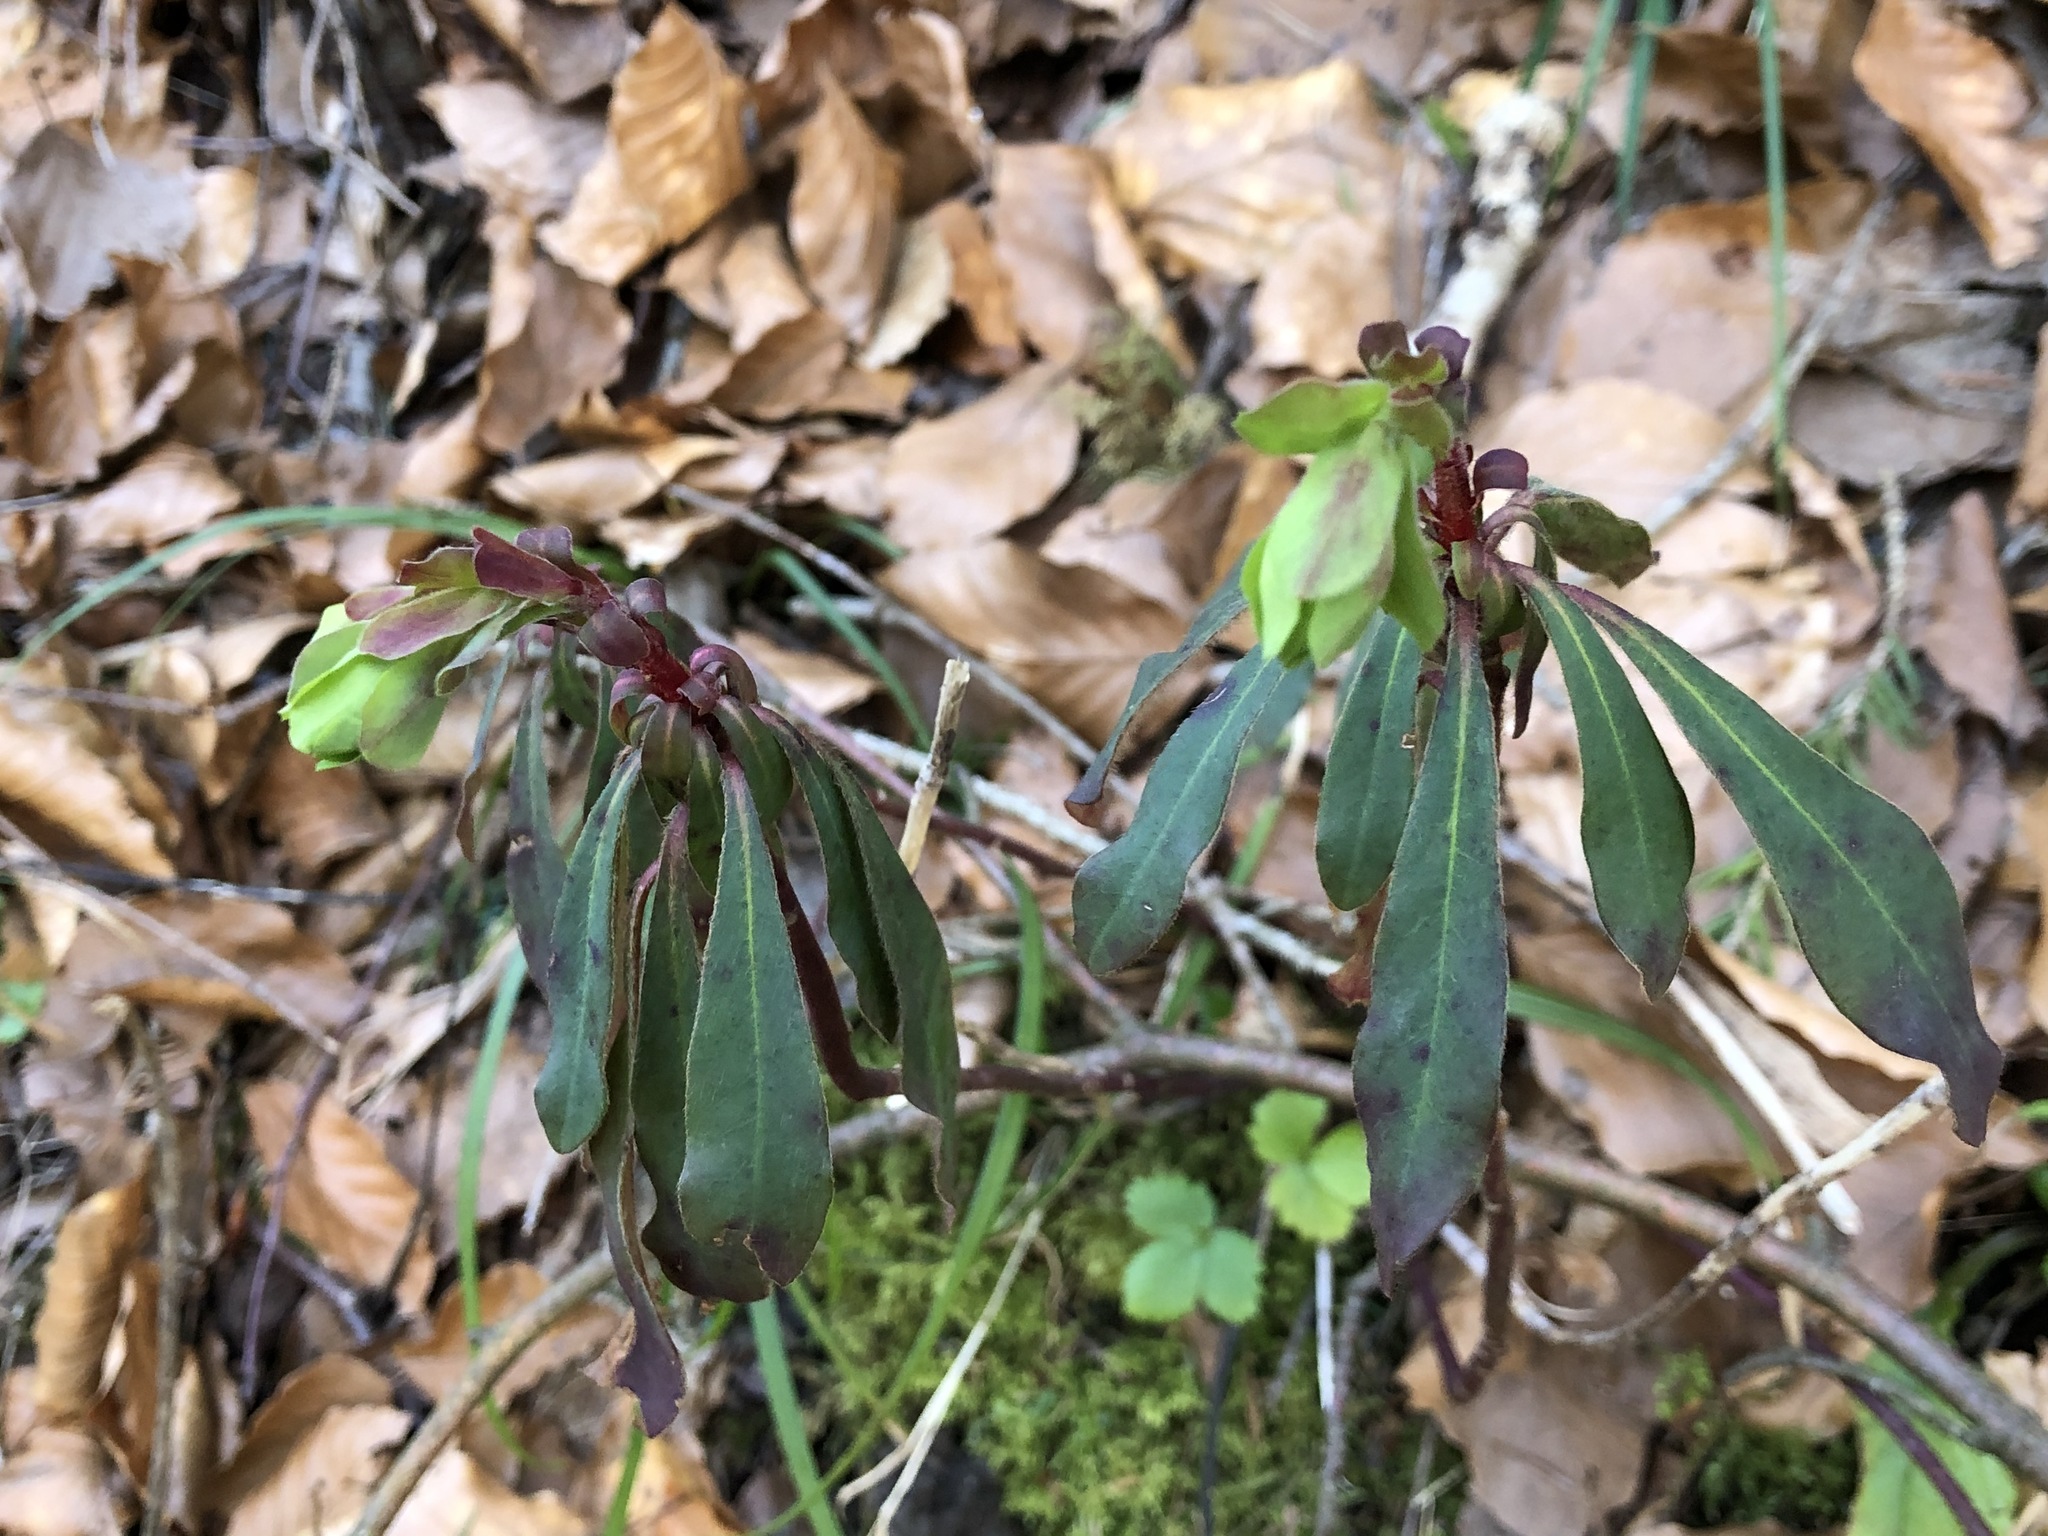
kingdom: Plantae
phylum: Tracheophyta
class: Magnoliopsida
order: Malpighiales
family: Euphorbiaceae
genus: Euphorbia
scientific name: Euphorbia amygdaloides
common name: Wood spurge
